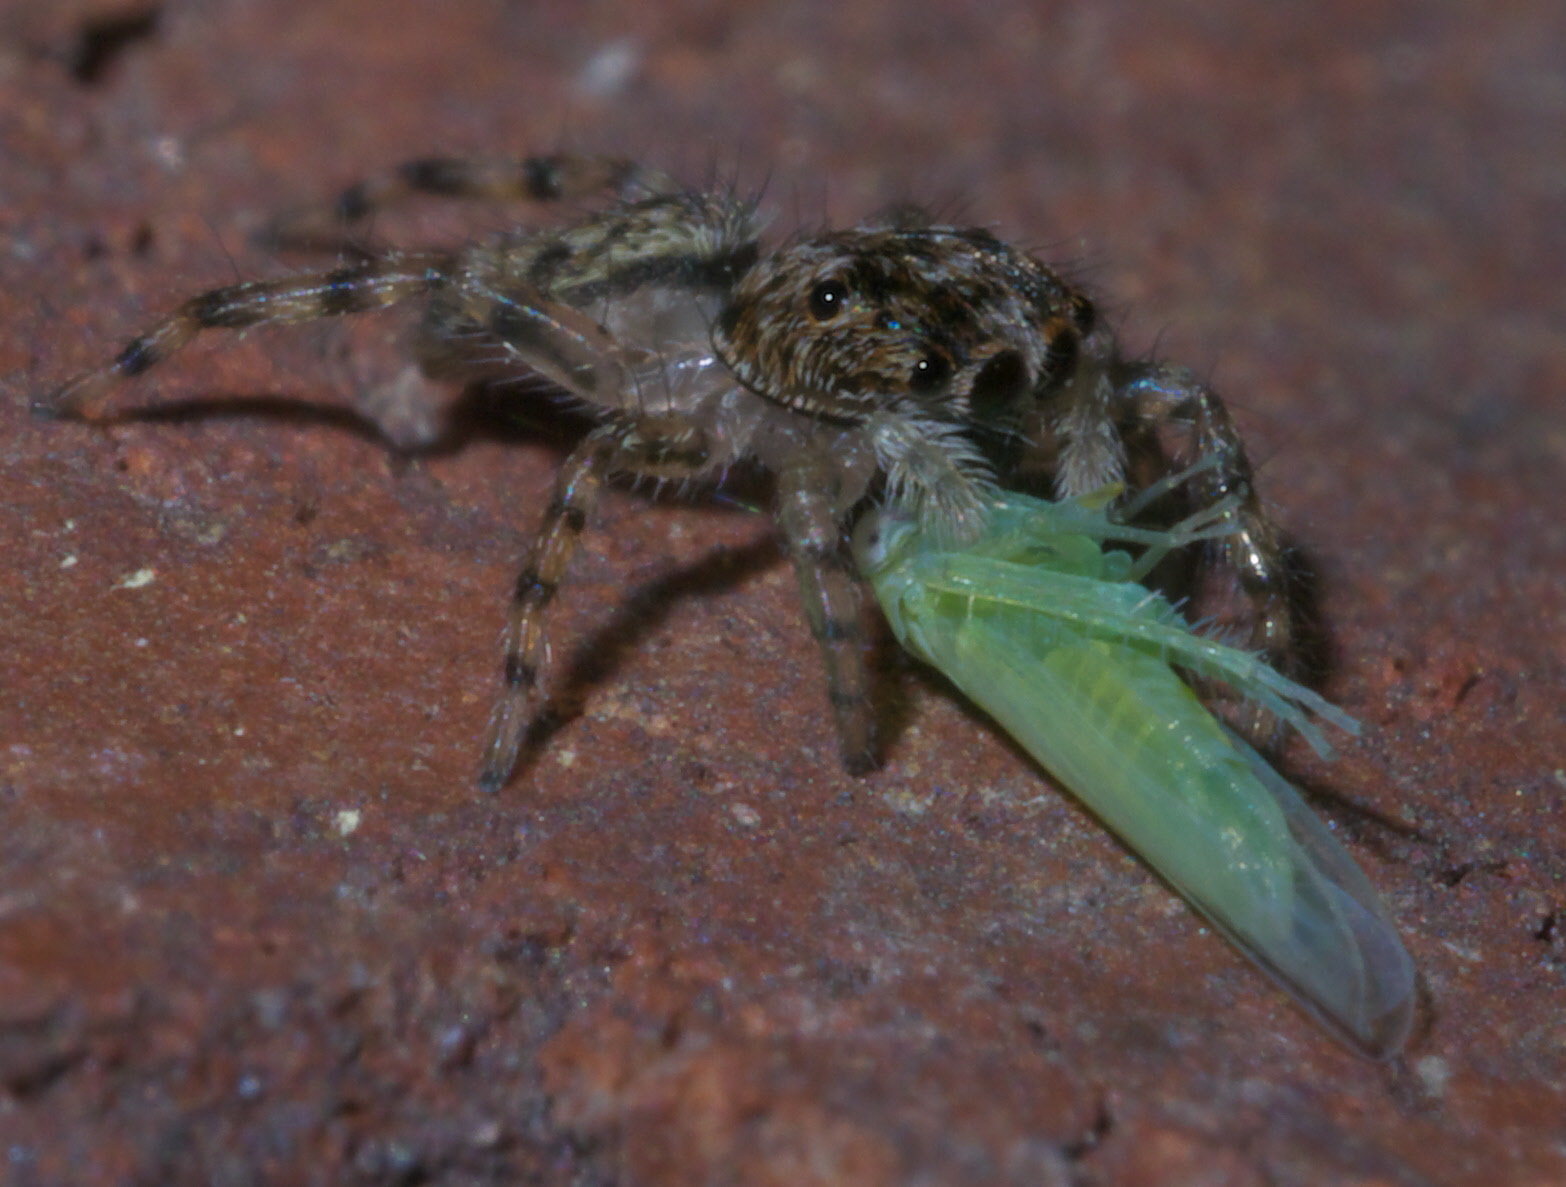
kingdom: Animalia
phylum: Arthropoda
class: Arachnida
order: Araneae
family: Salticidae
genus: Platycryptus
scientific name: Platycryptus undatus
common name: Tan jumping spider
